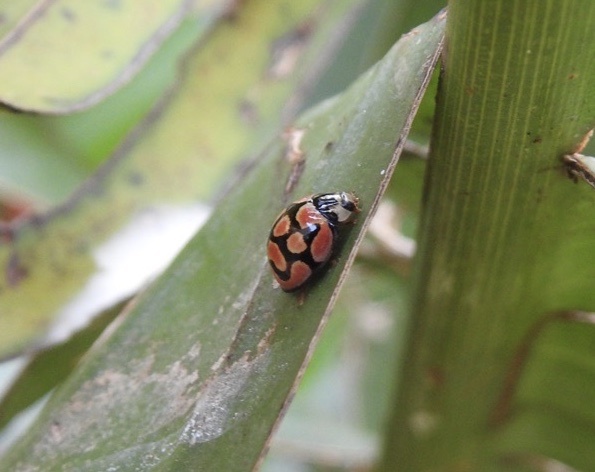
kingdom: Animalia
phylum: Arthropoda
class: Insecta
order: Coleoptera
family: Coccinellidae
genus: Cheilomenes
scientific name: Cheilomenes lunata
